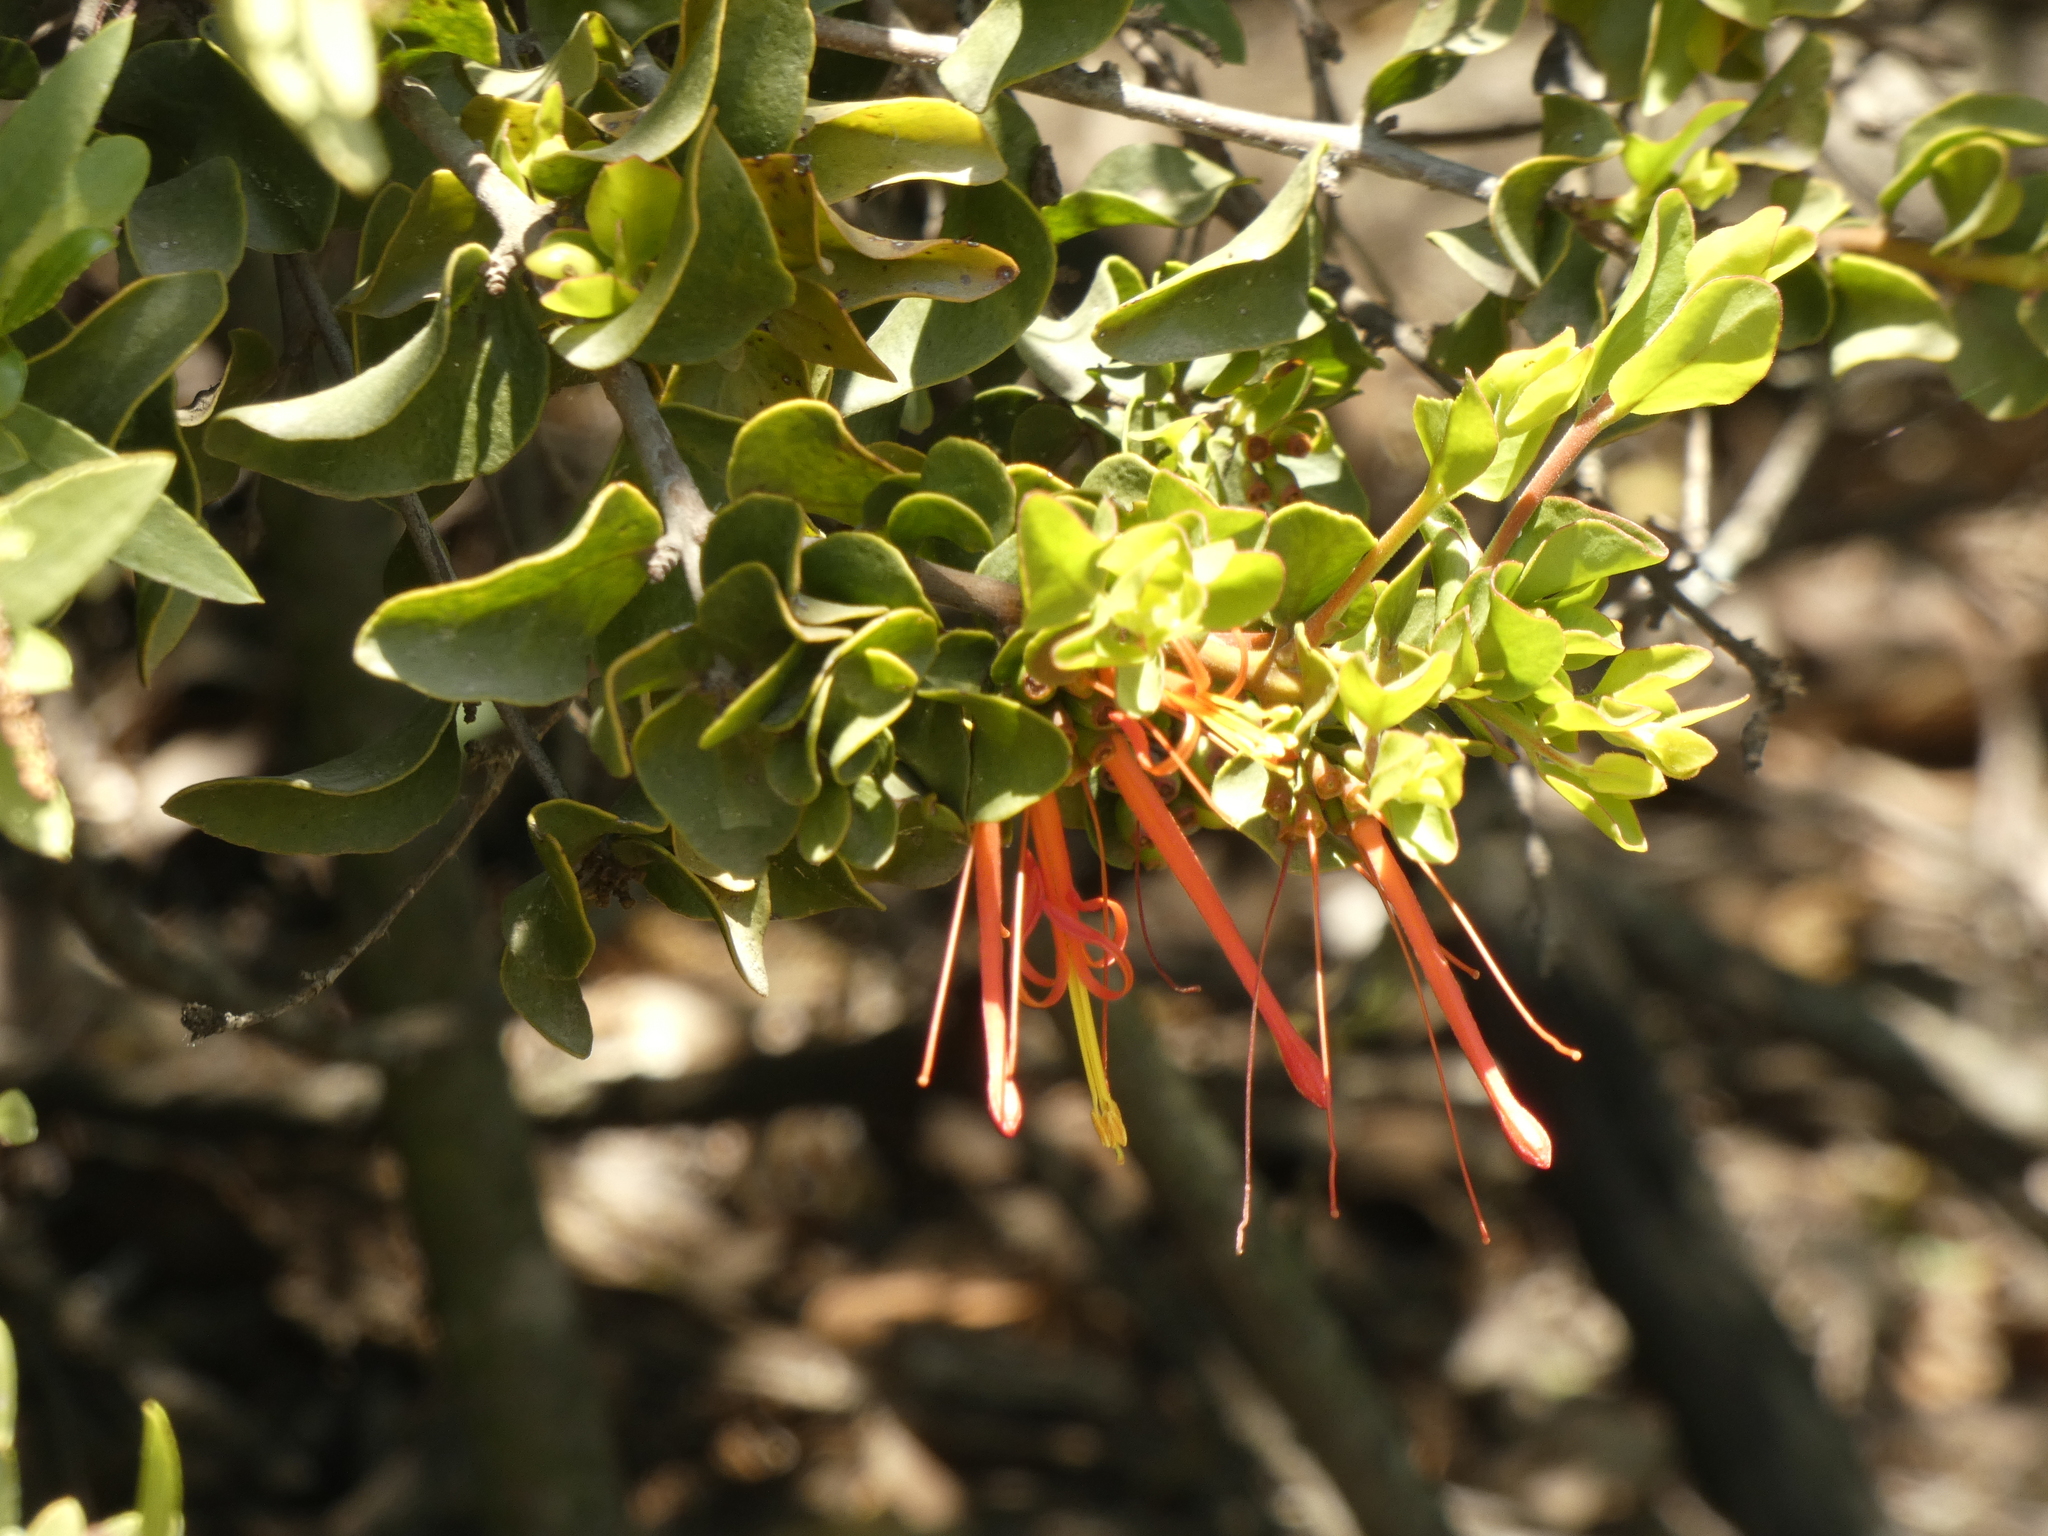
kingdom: Plantae
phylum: Tracheophyta
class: Magnoliopsida
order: Santalales
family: Loranthaceae
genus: Tristerix
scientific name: Tristerix corymbosus
